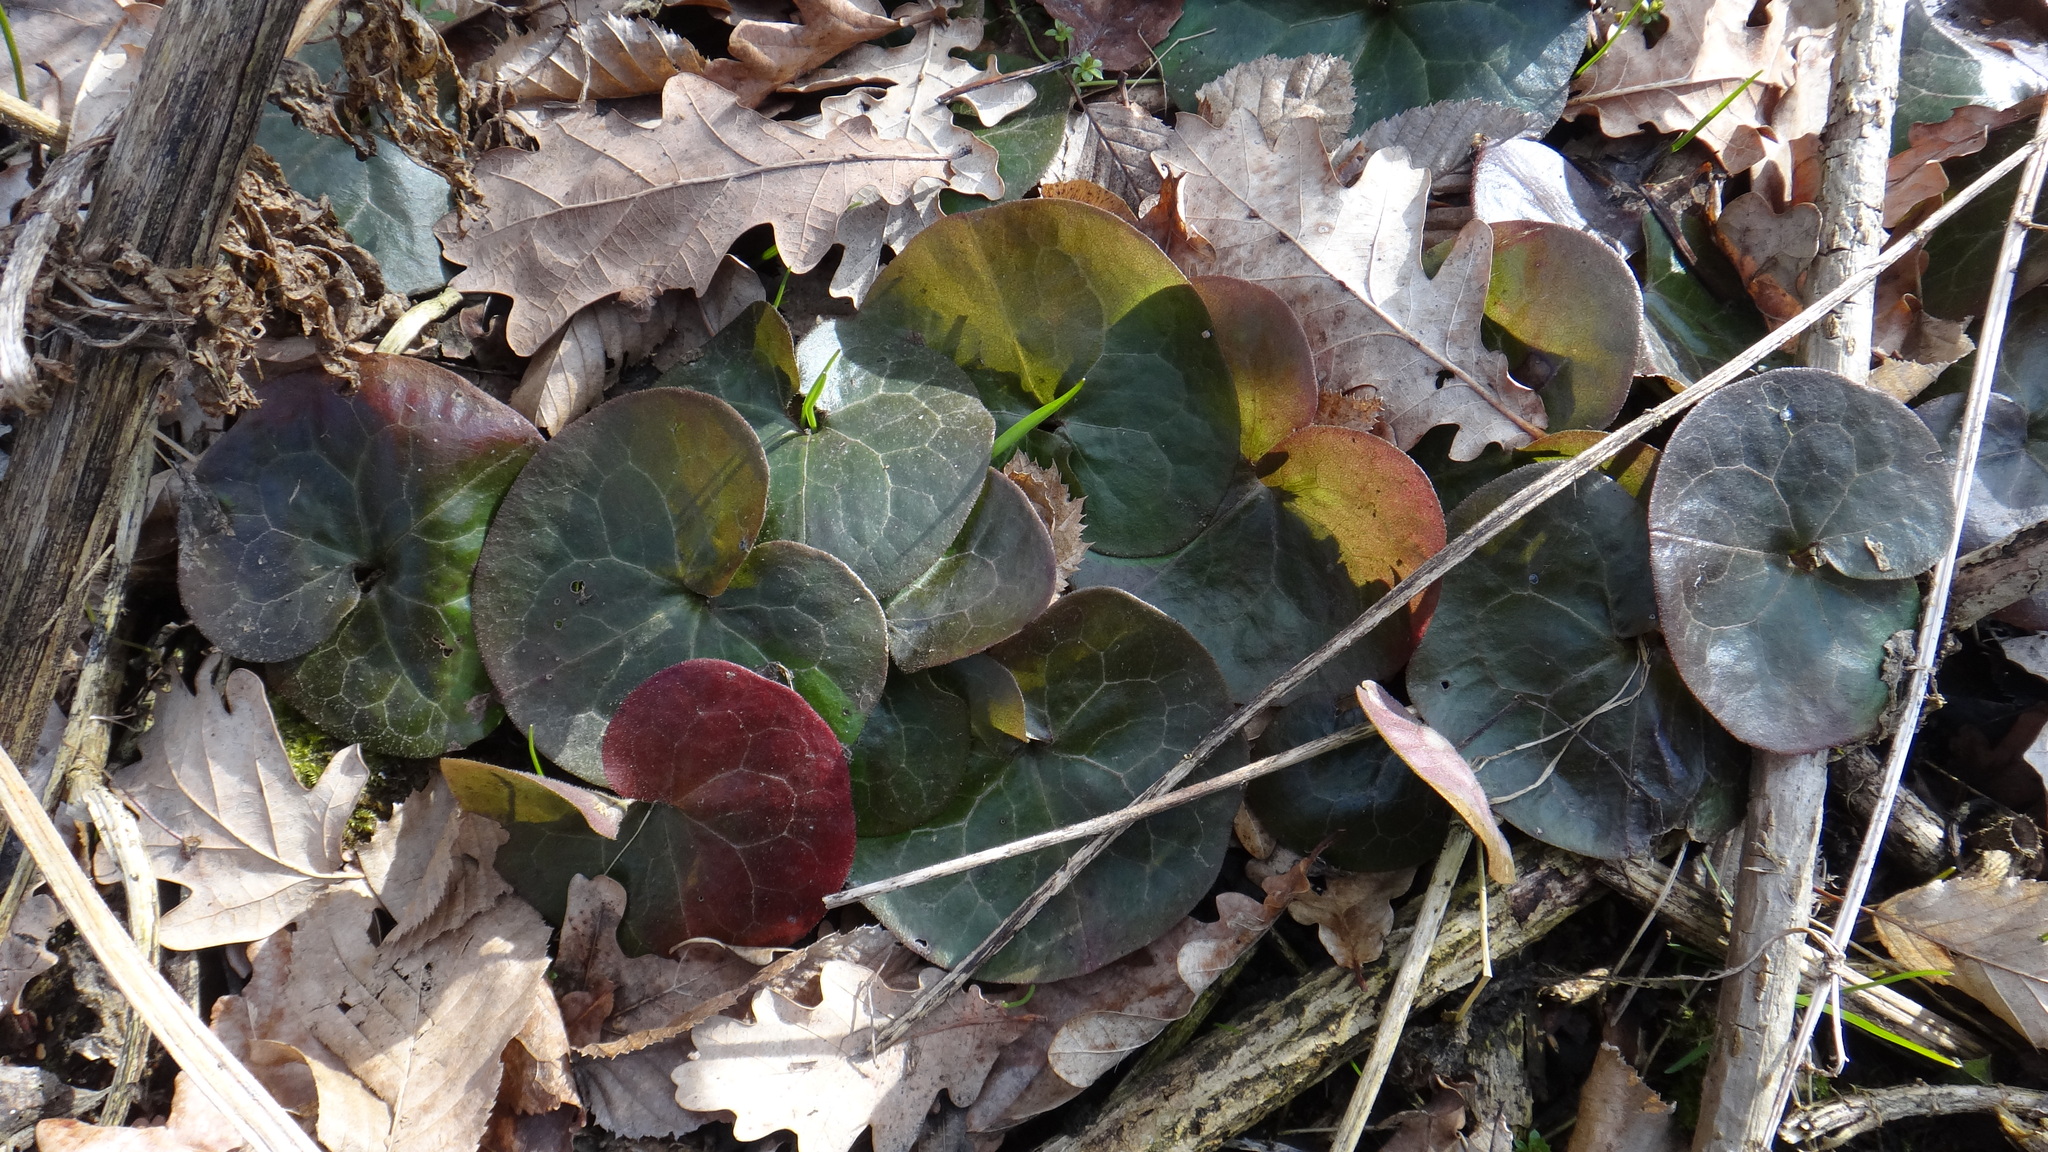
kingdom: Plantae
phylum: Tracheophyta
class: Magnoliopsida
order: Piperales
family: Aristolochiaceae
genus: Asarum
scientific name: Asarum europaeum
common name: Asarabacca
